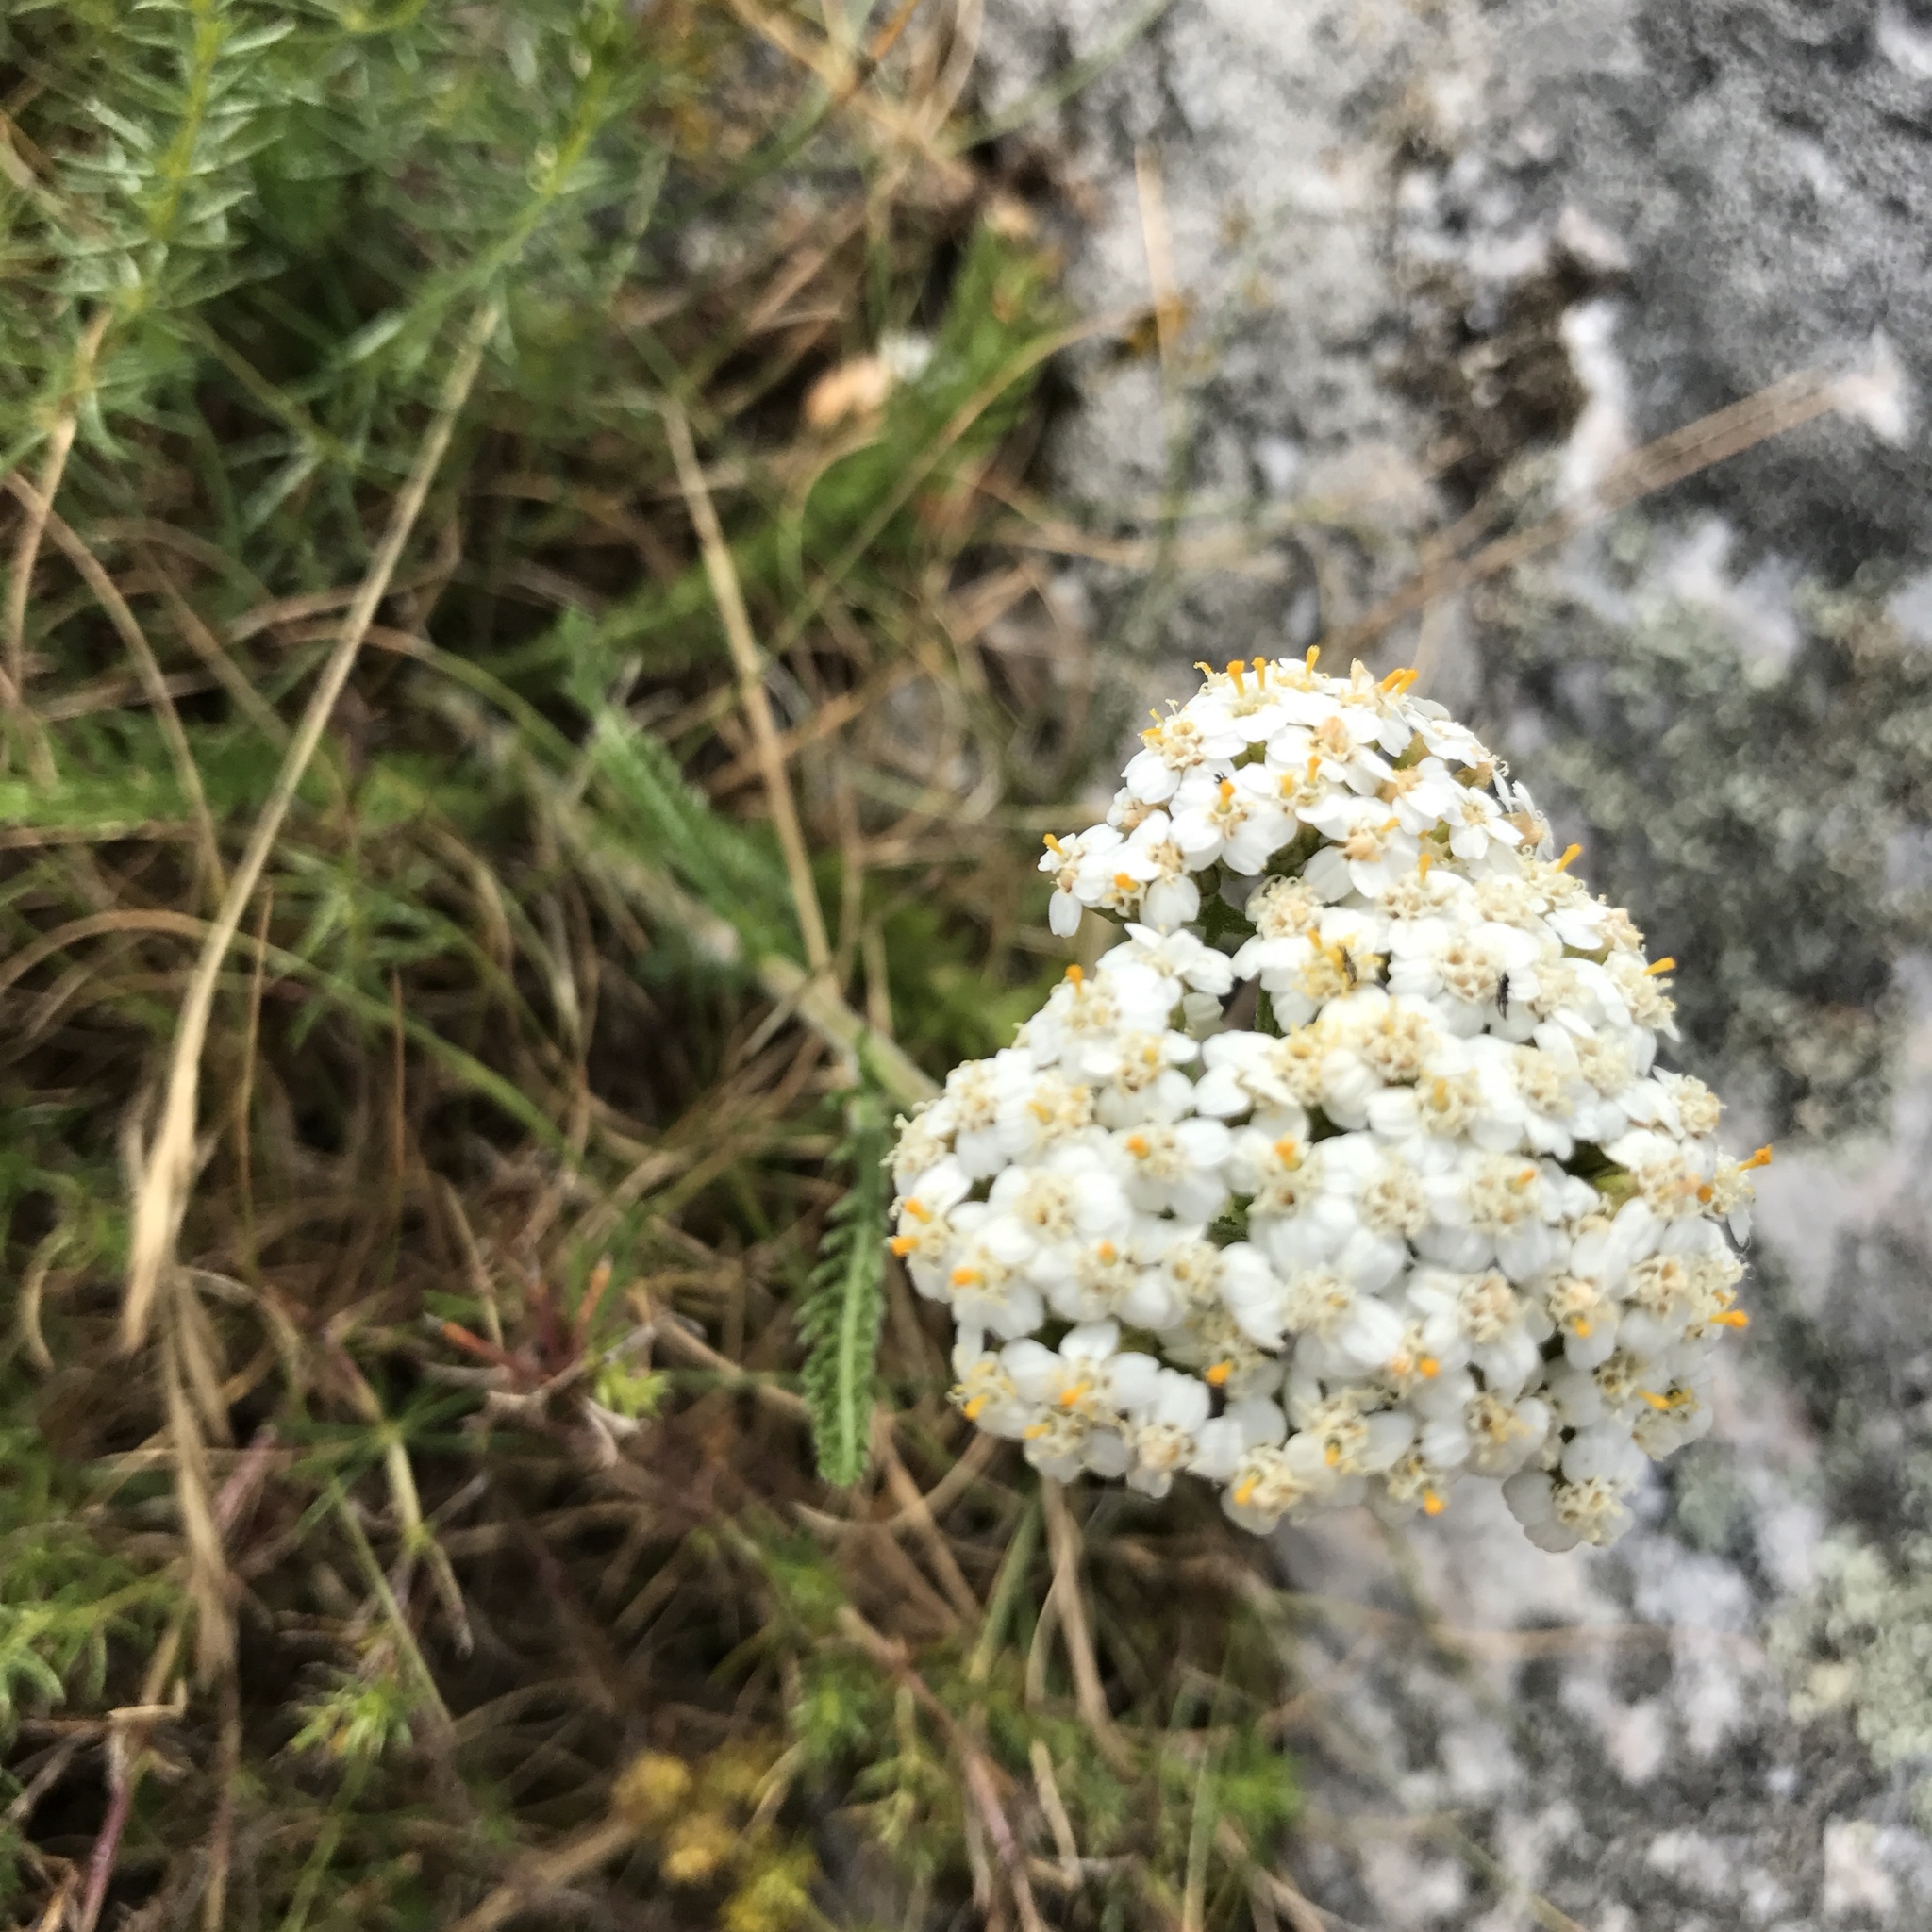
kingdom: Plantae
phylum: Tracheophyta
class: Magnoliopsida
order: Asterales
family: Asteraceae
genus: Achillea
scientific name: Achillea millefolium
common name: Yarrow
